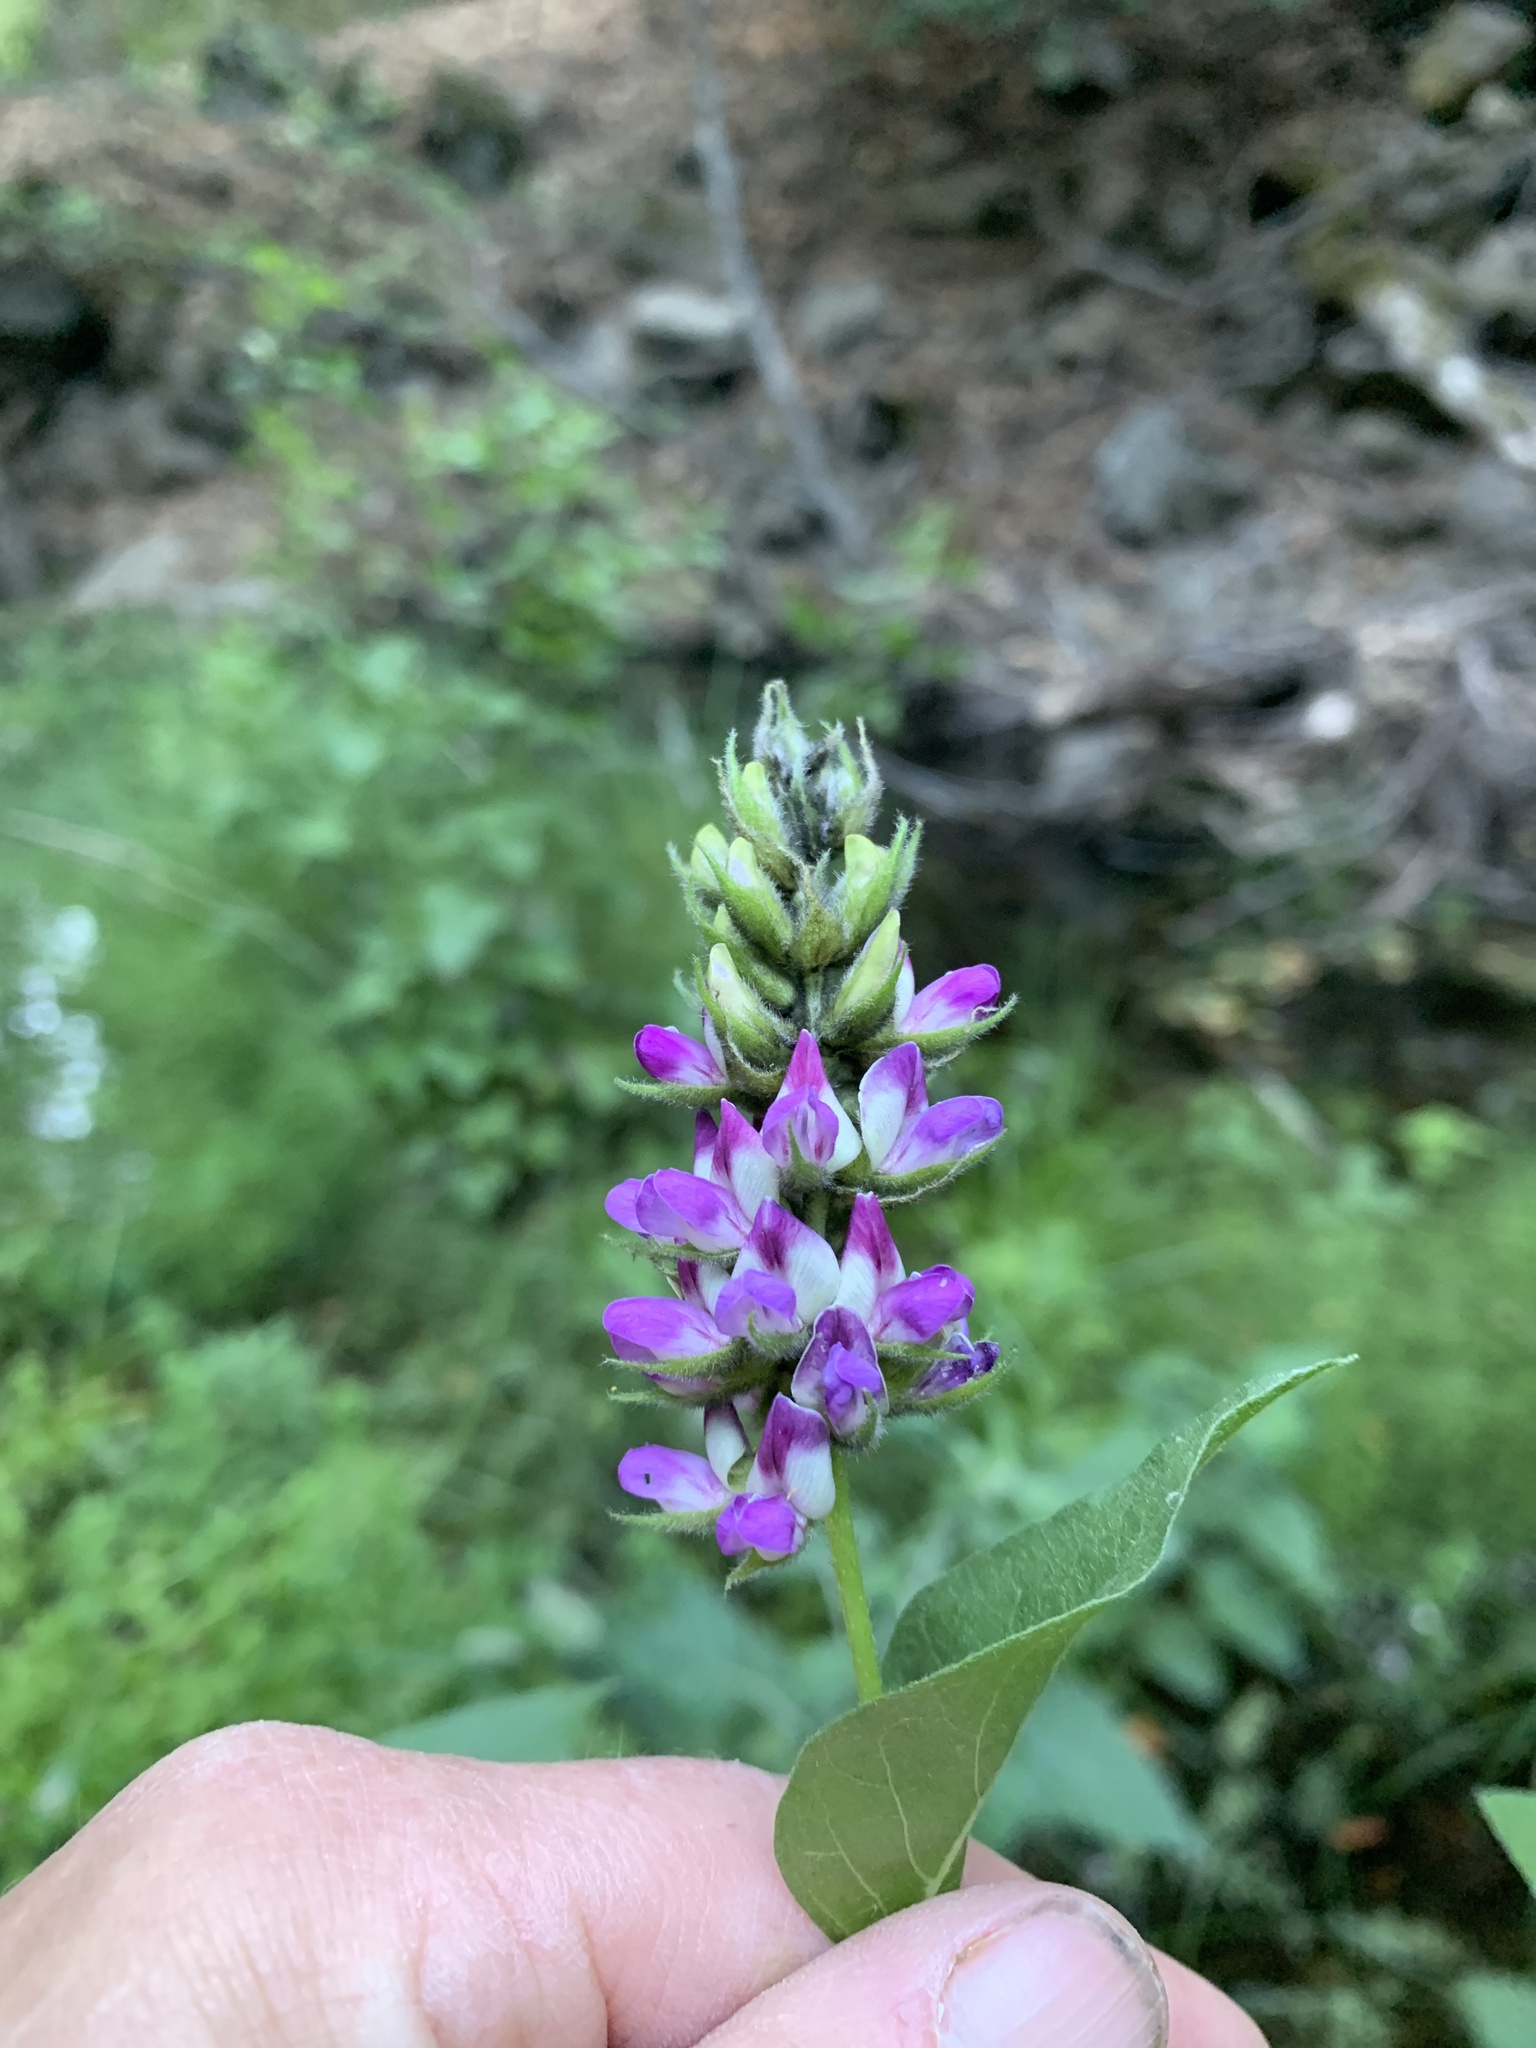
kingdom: Plantae
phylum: Tracheophyta
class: Magnoliopsida
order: Fabales
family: Fabaceae
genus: Hoita
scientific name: Hoita macrostachya
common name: Leatherroot
